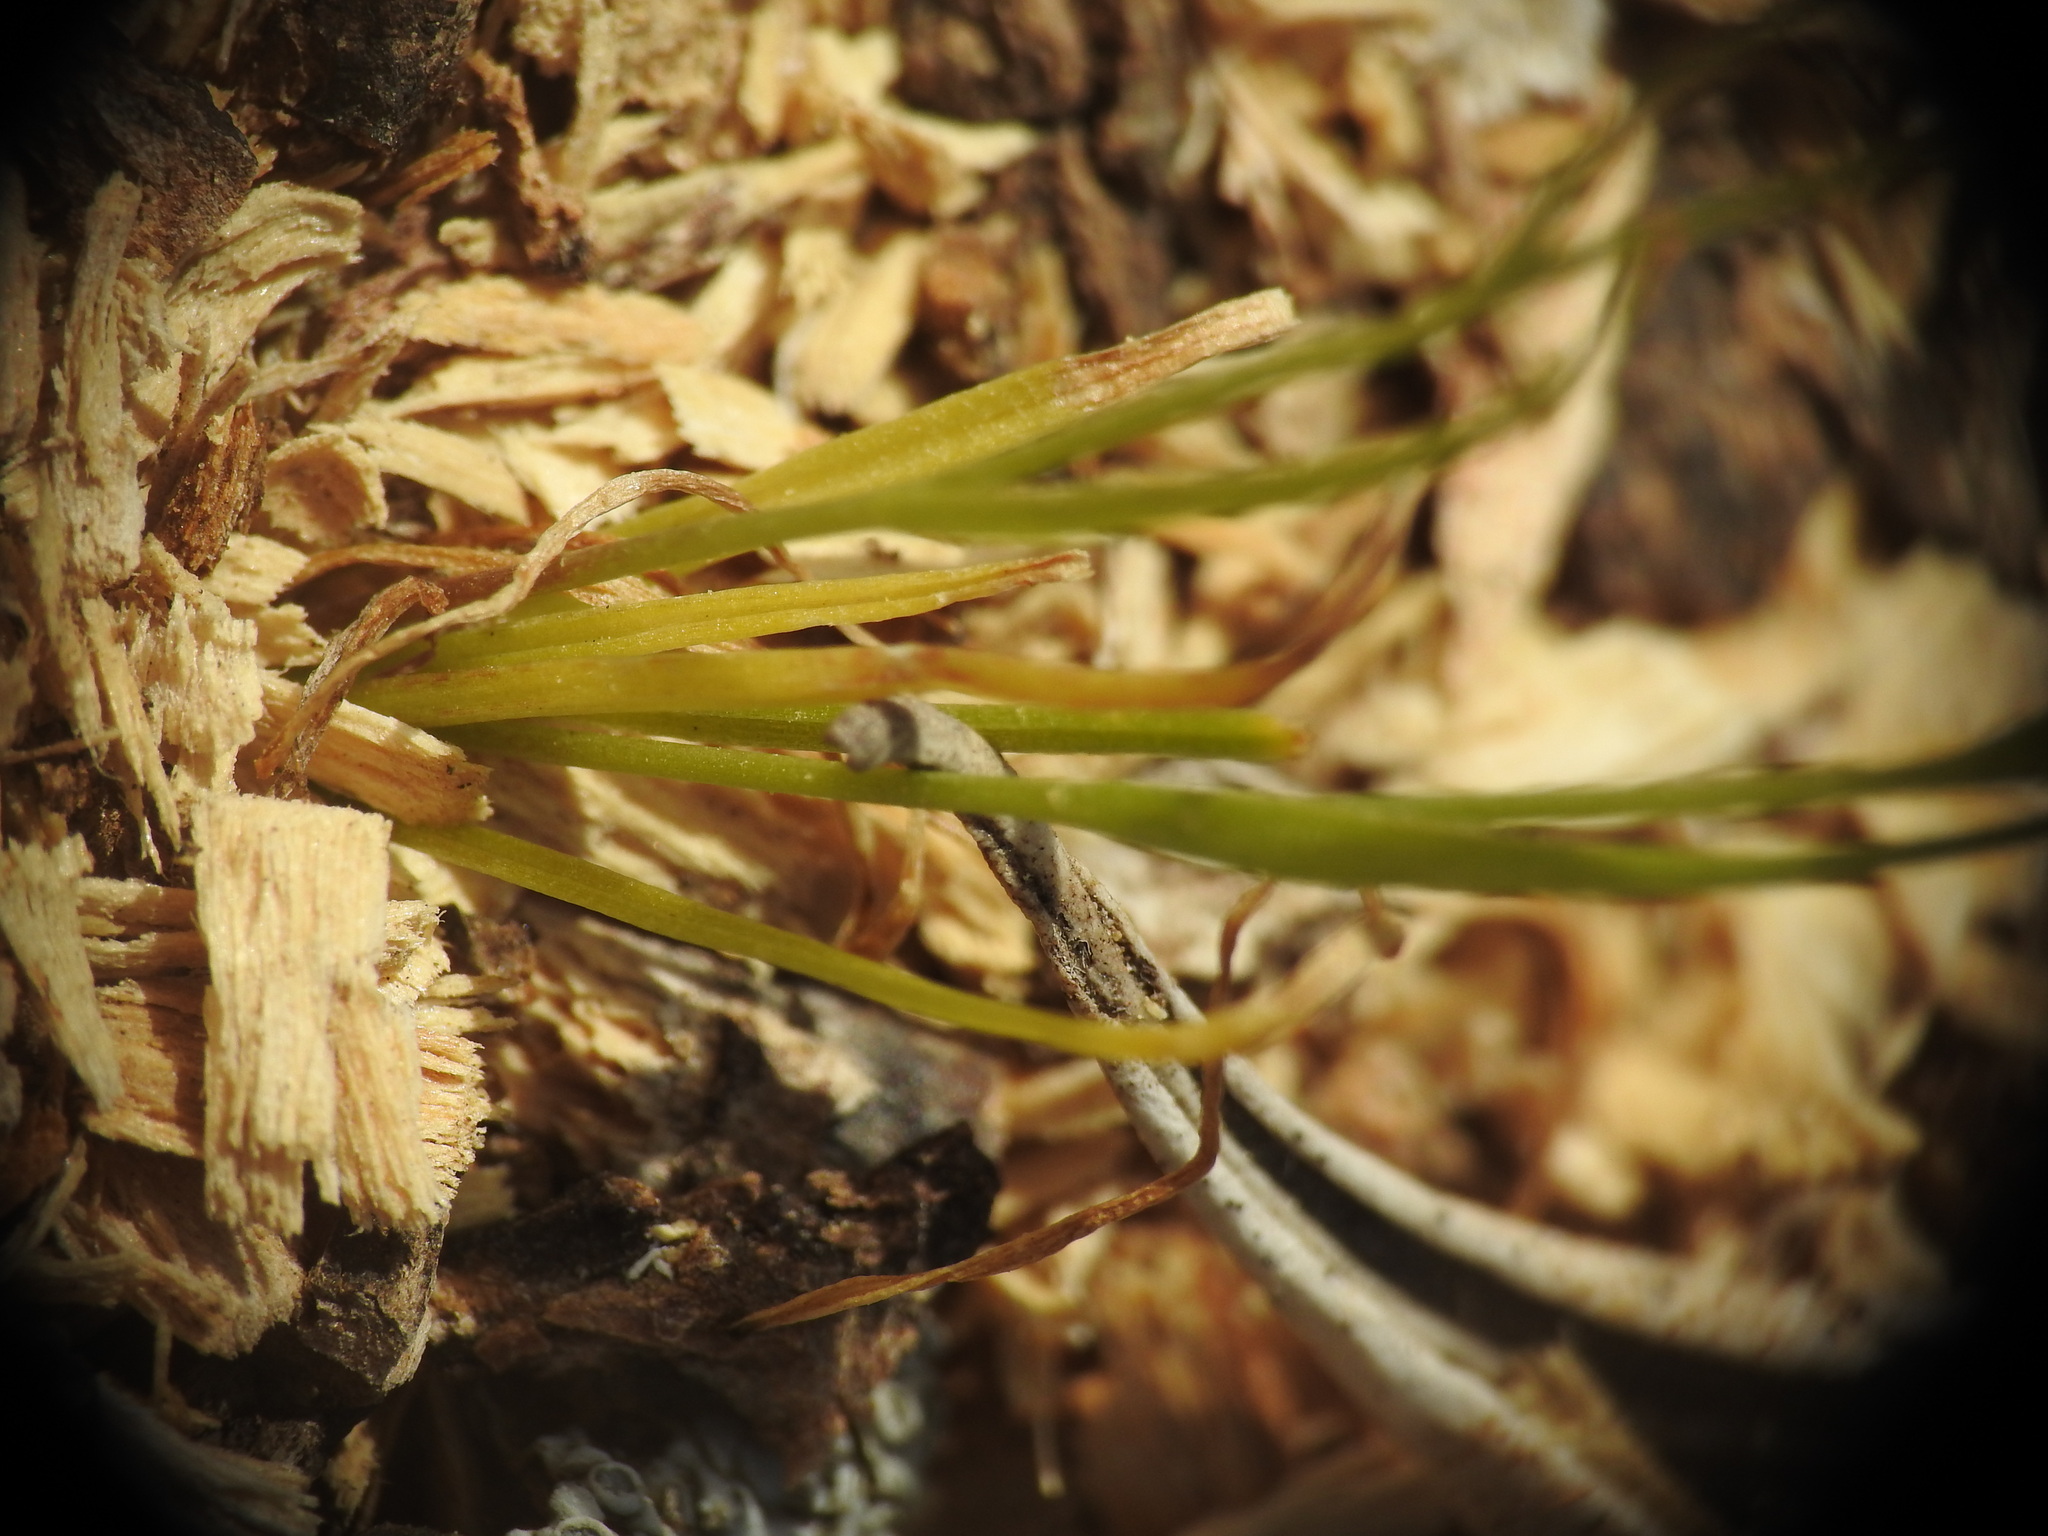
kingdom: Plantae
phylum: Tracheophyta
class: Liliopsida
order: Liliales
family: Liliaceae
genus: Gagea
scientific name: Gagea graeca
